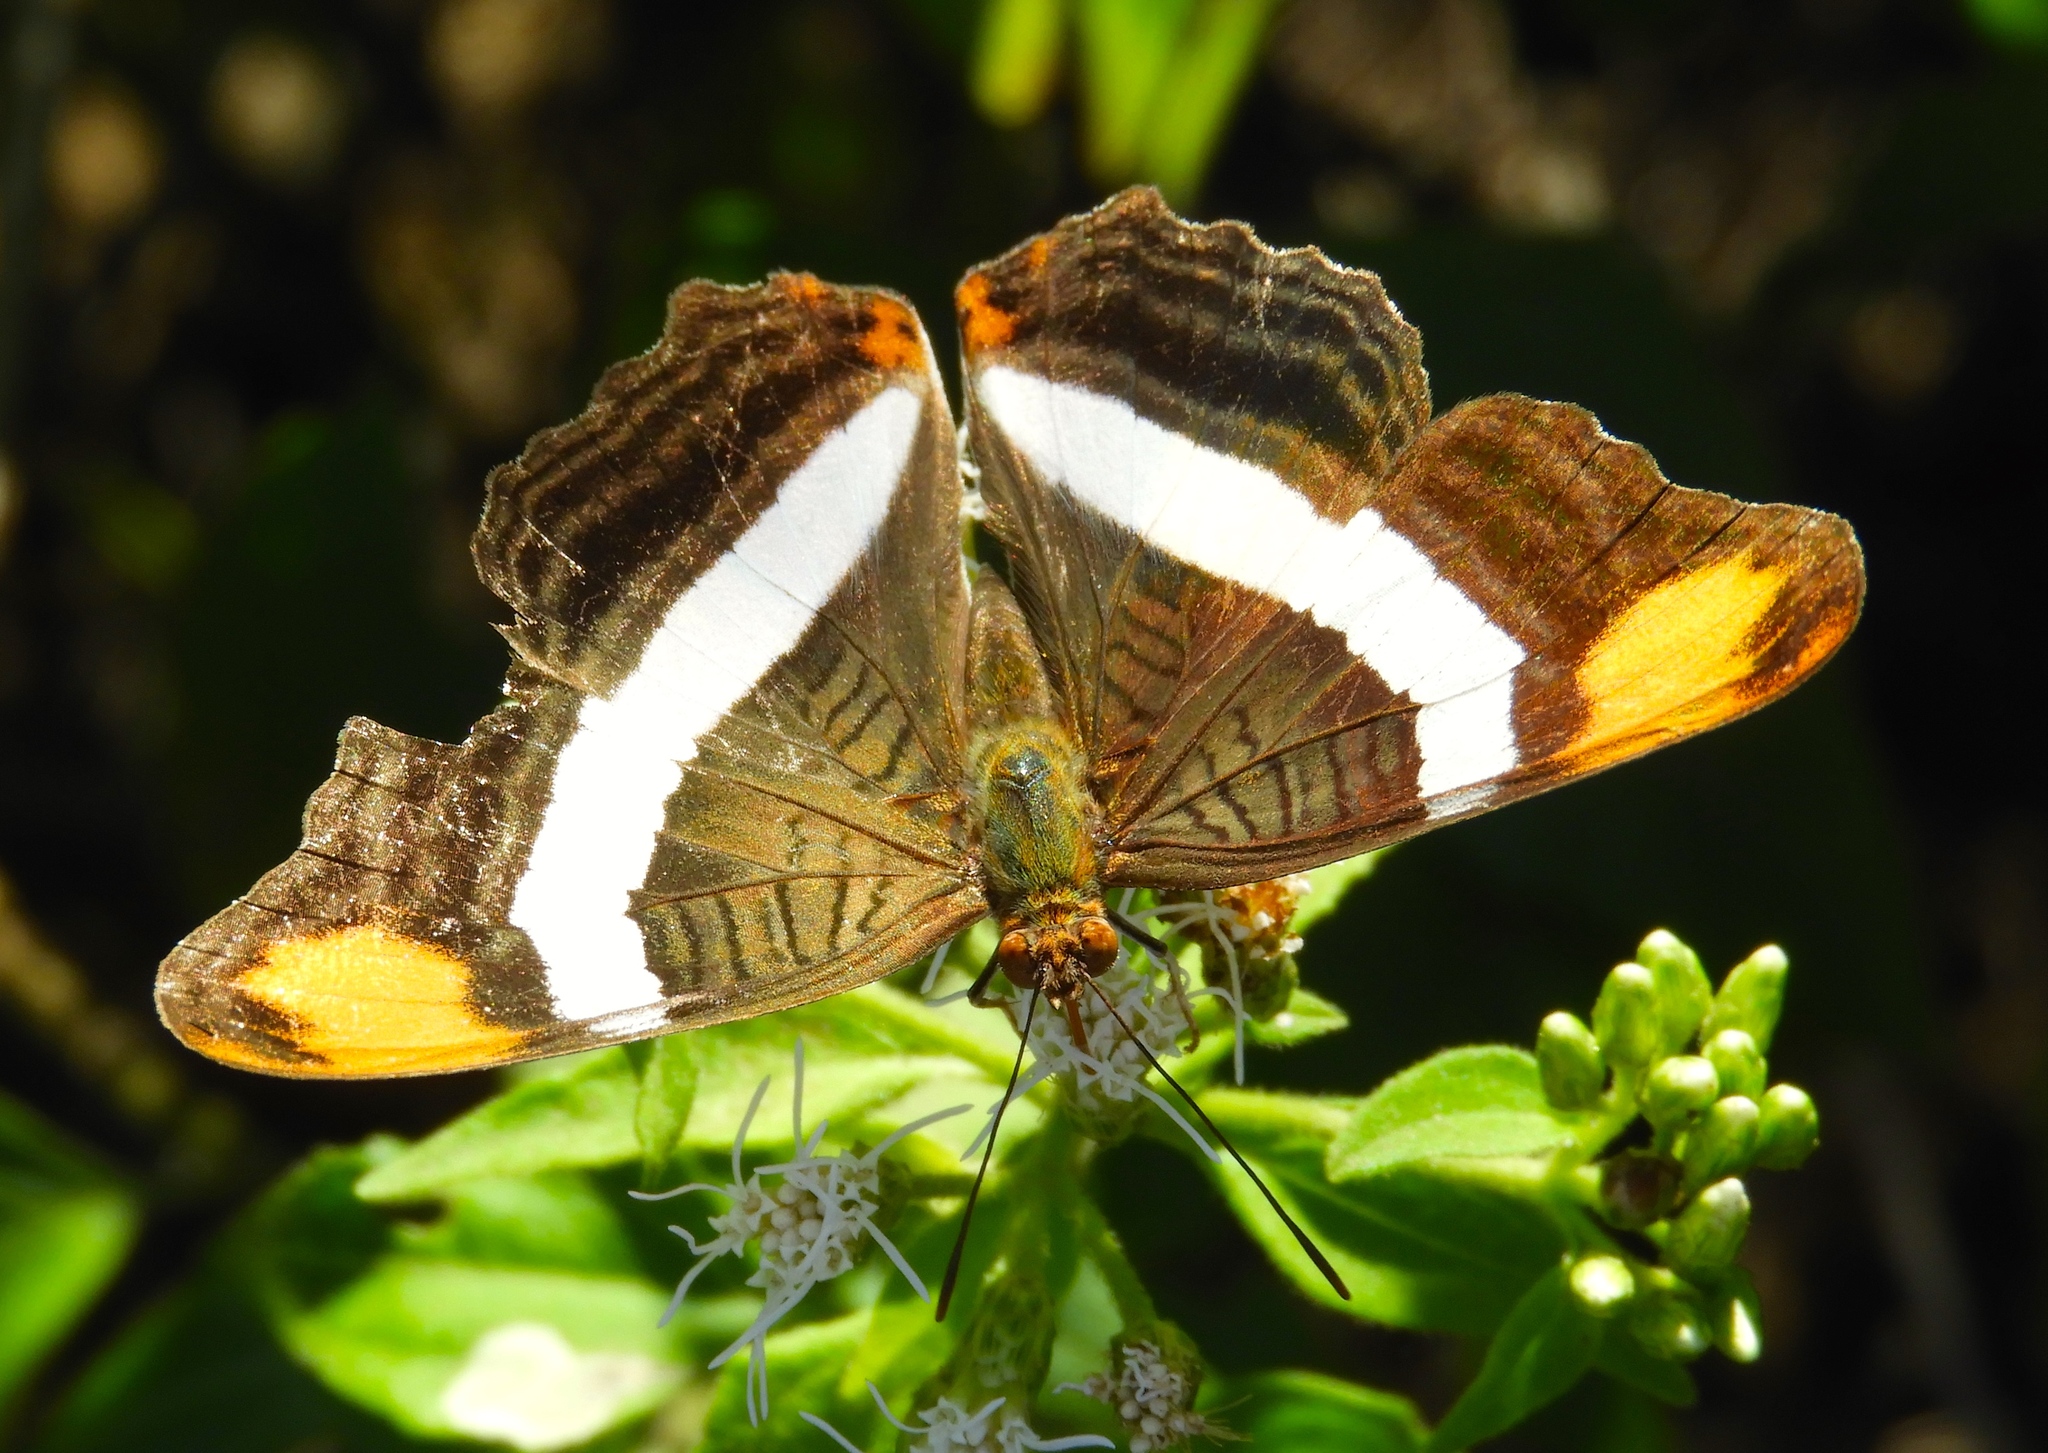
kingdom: Animalia
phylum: Arthropoda
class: Insecta
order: Lepidoptera
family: Nymphalidae
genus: Limenitis
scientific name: Limenitis fessonia
